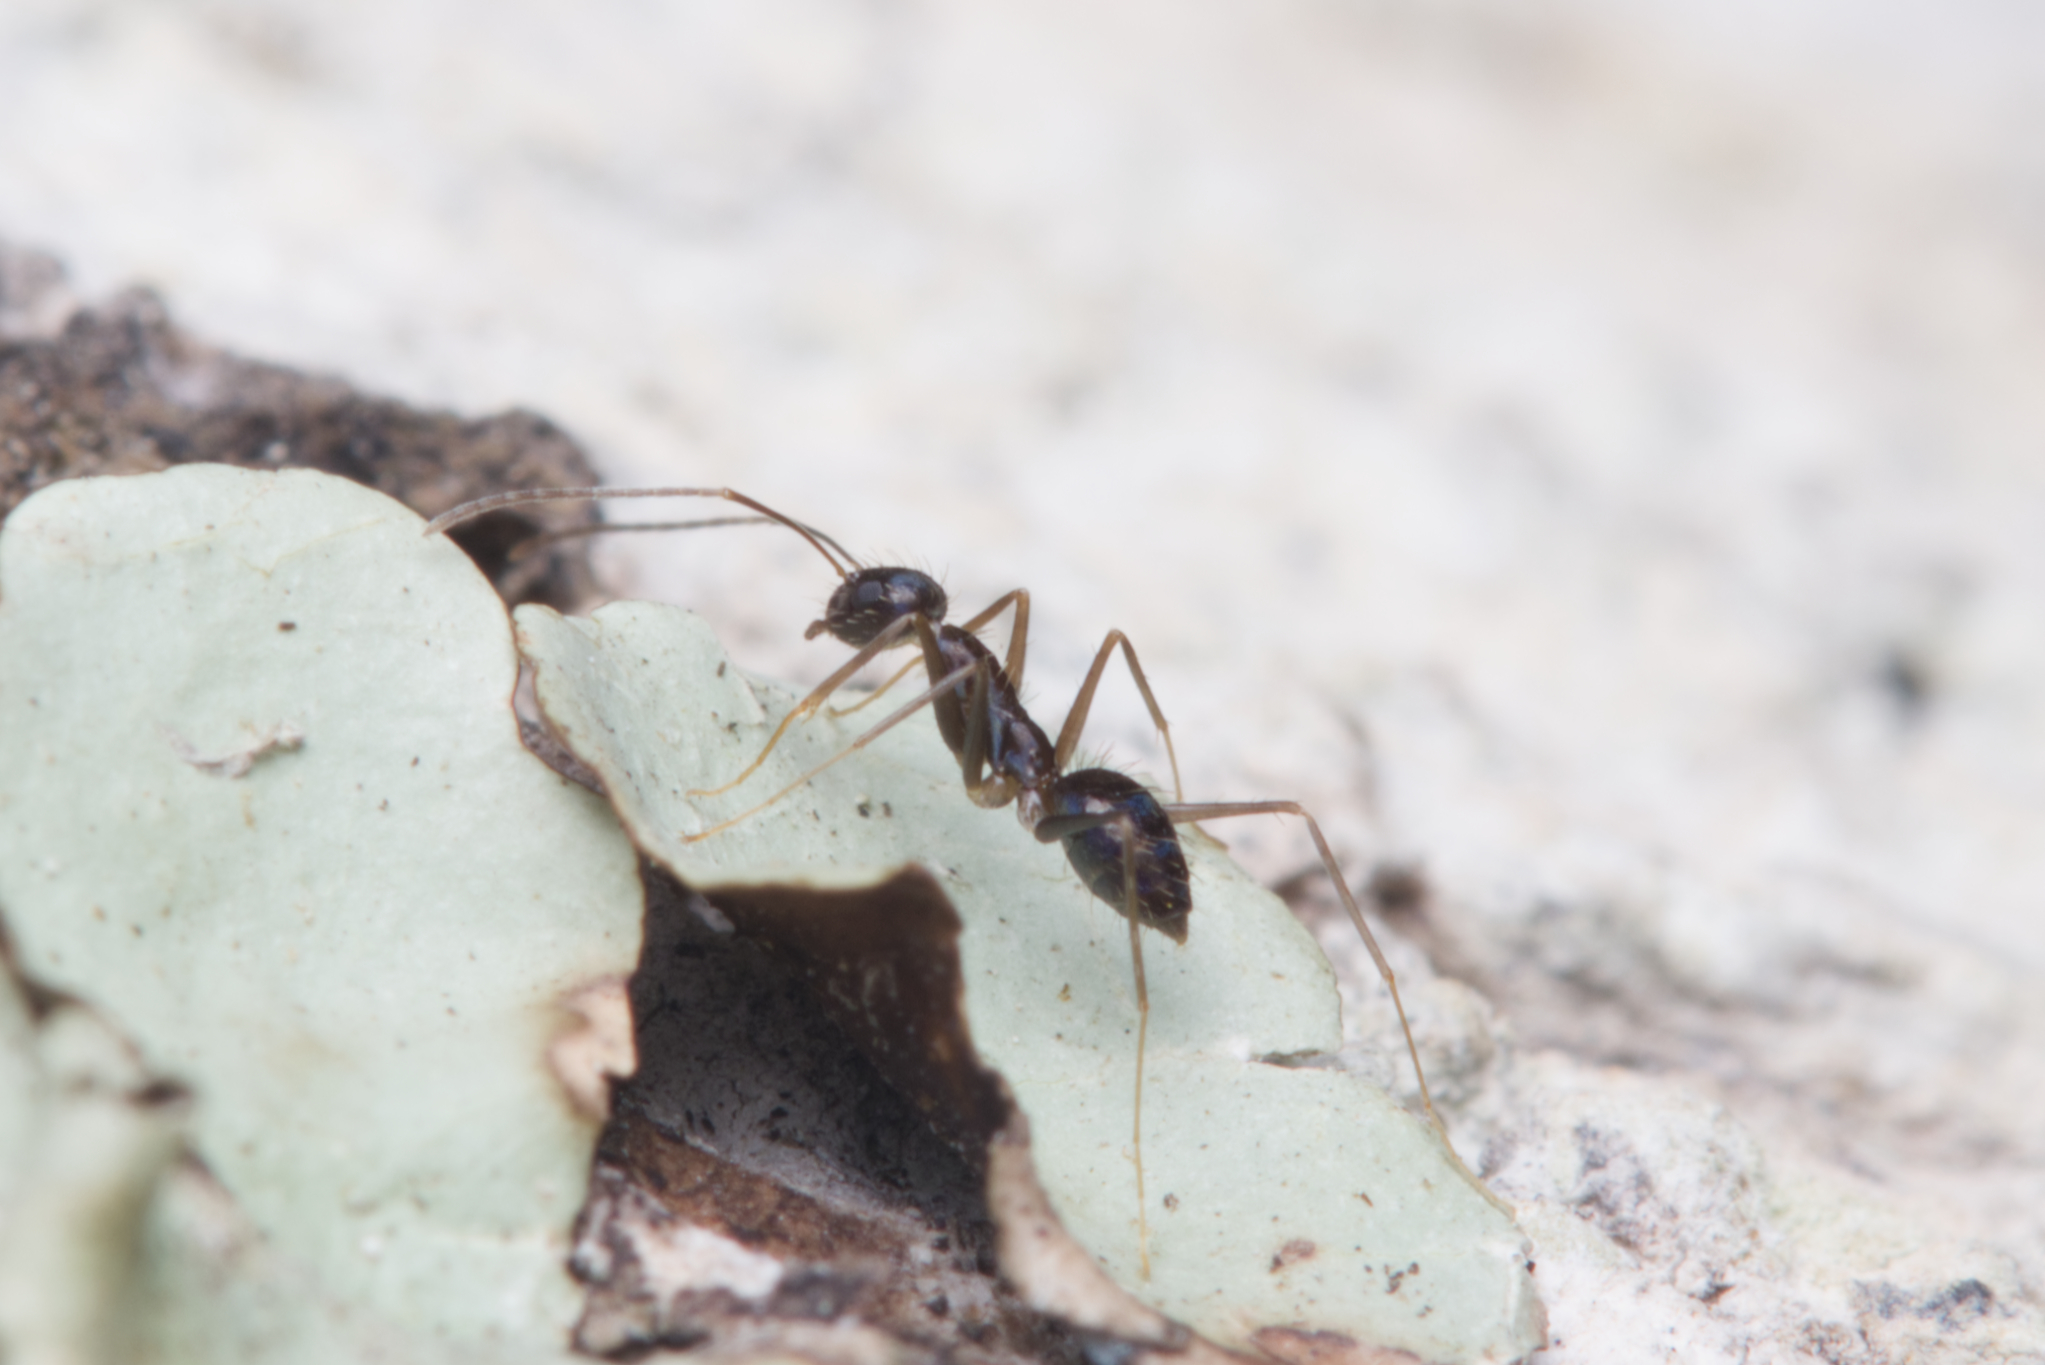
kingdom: Animalia
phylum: Arthropoda
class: Insecta
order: Hymenoptera
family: Formicidae
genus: Paratrechina
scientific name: Paratrechina longicornis
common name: Longhorned crazy ant
